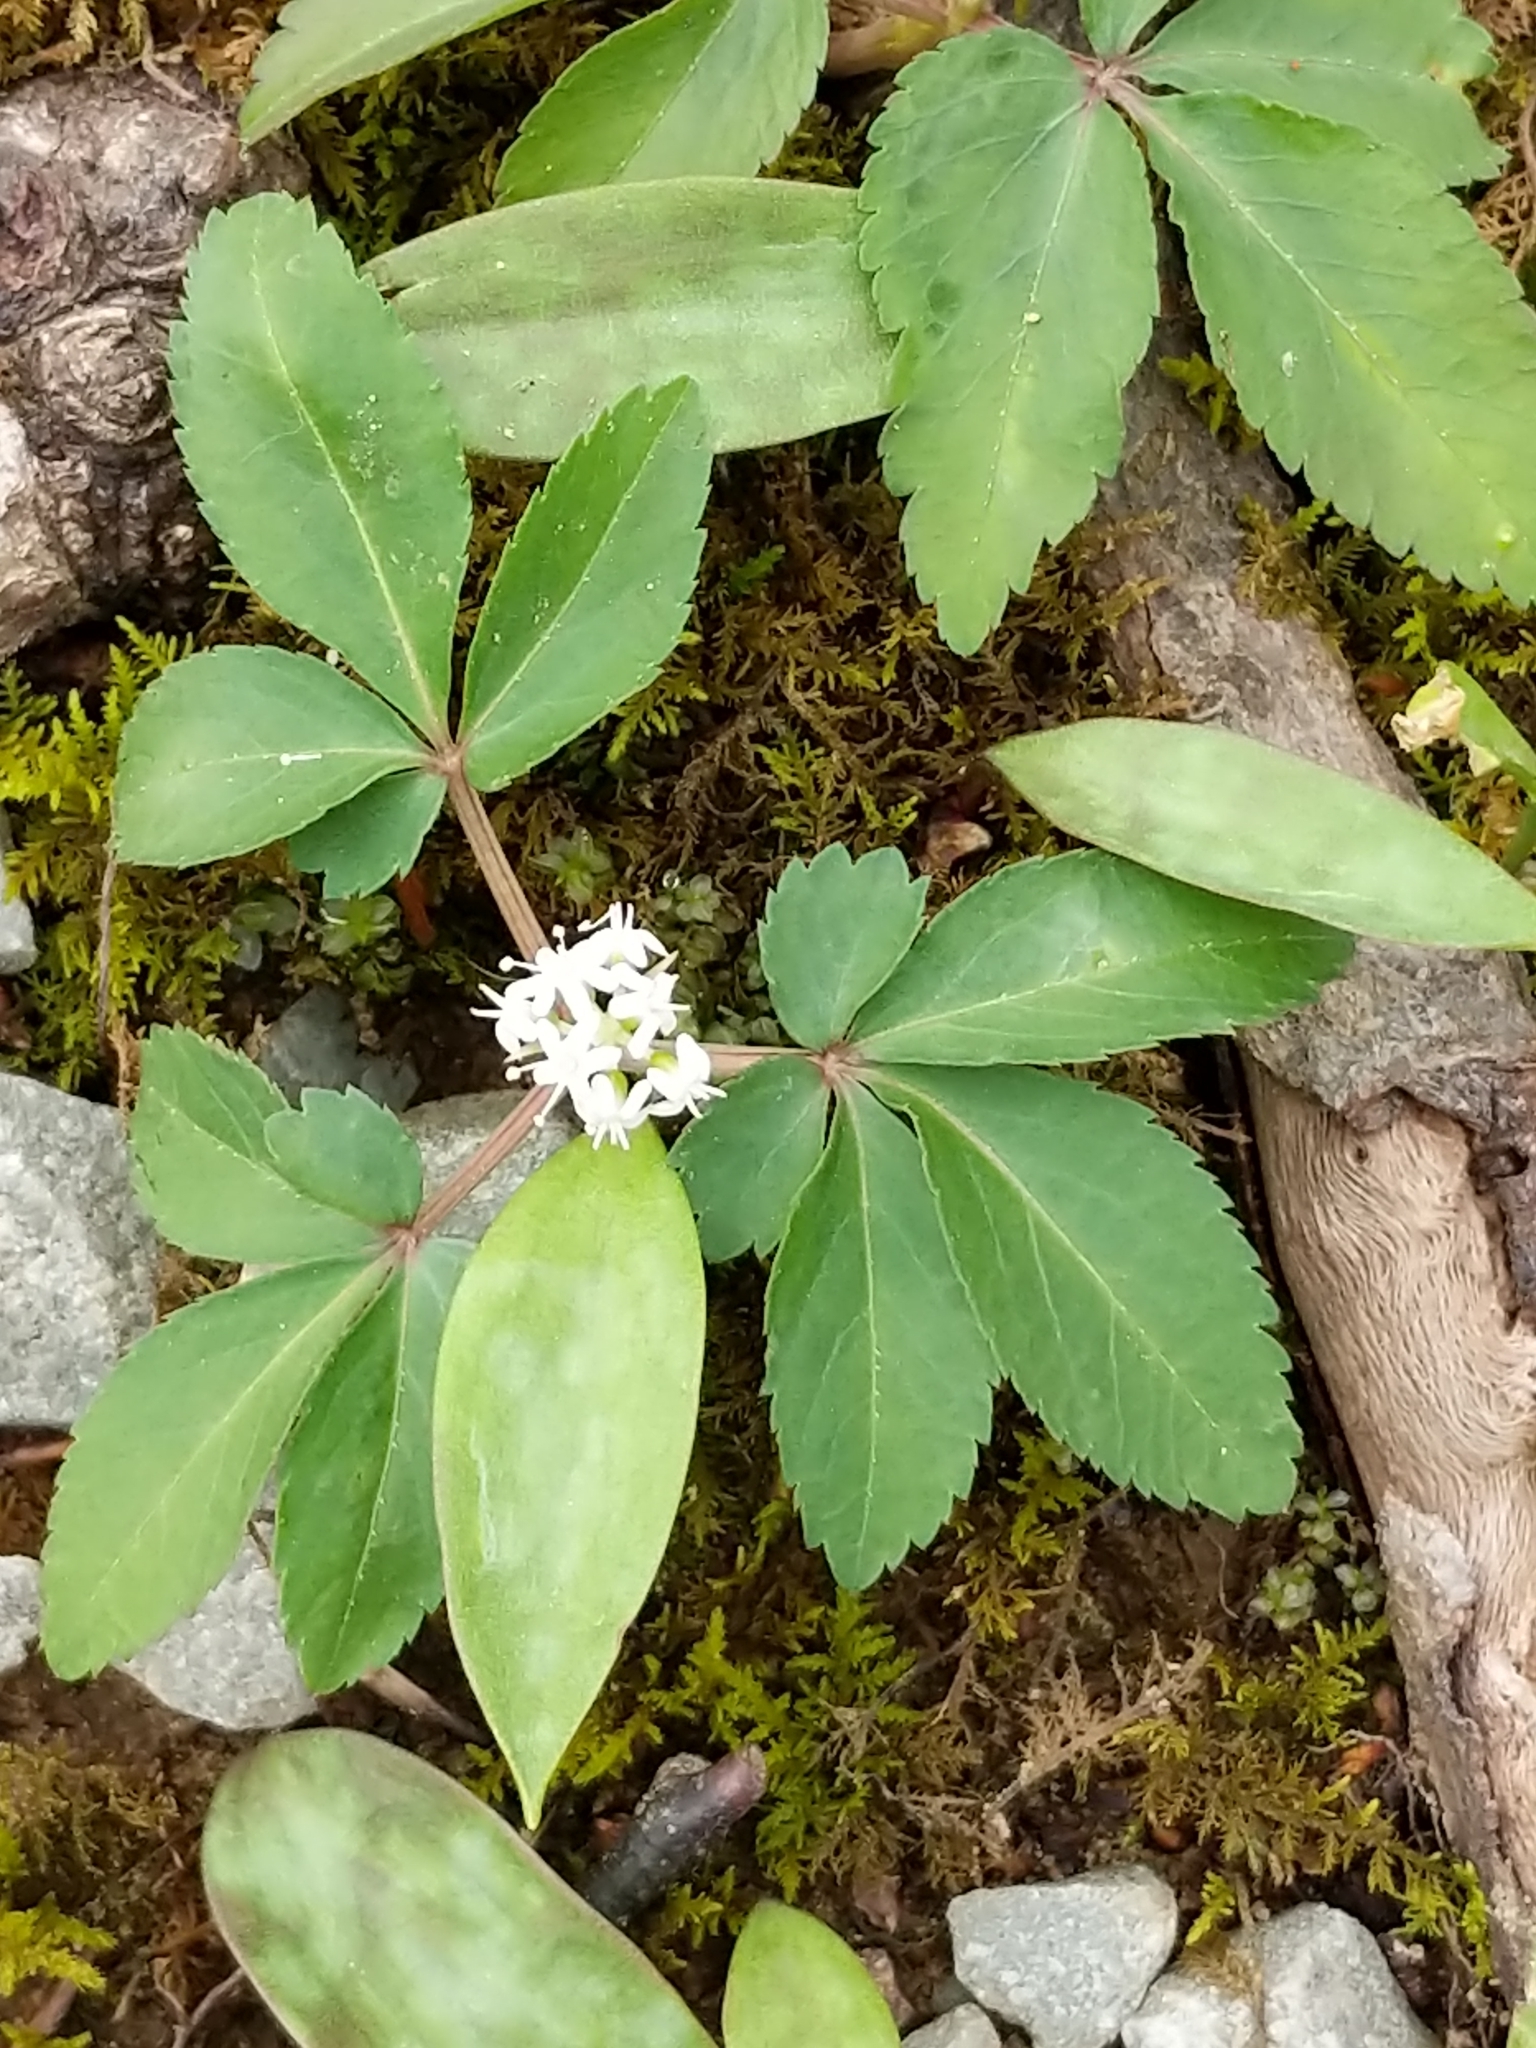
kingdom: Plantae
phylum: Tracheophyta
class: Magnoliopsida
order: Apiales
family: Araliaceae
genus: Panax
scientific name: Panax trifolius
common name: Dwarf ginseng
